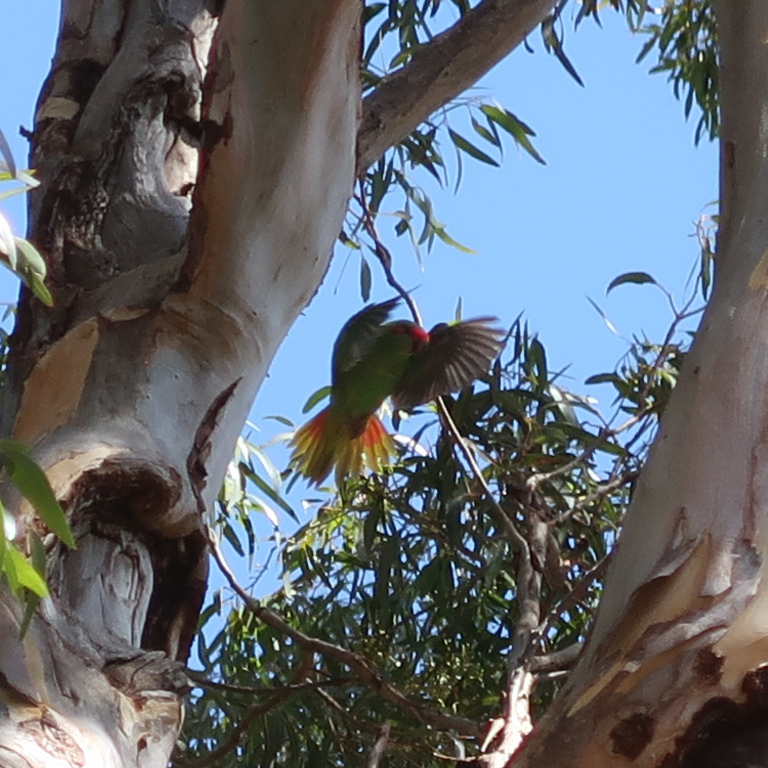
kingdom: Animalia
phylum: Chordata
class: Aves
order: Psittaciformes
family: Psittacidae
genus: Glossopsitta
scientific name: Glossopsitta concinna
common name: Musk lorikeet
